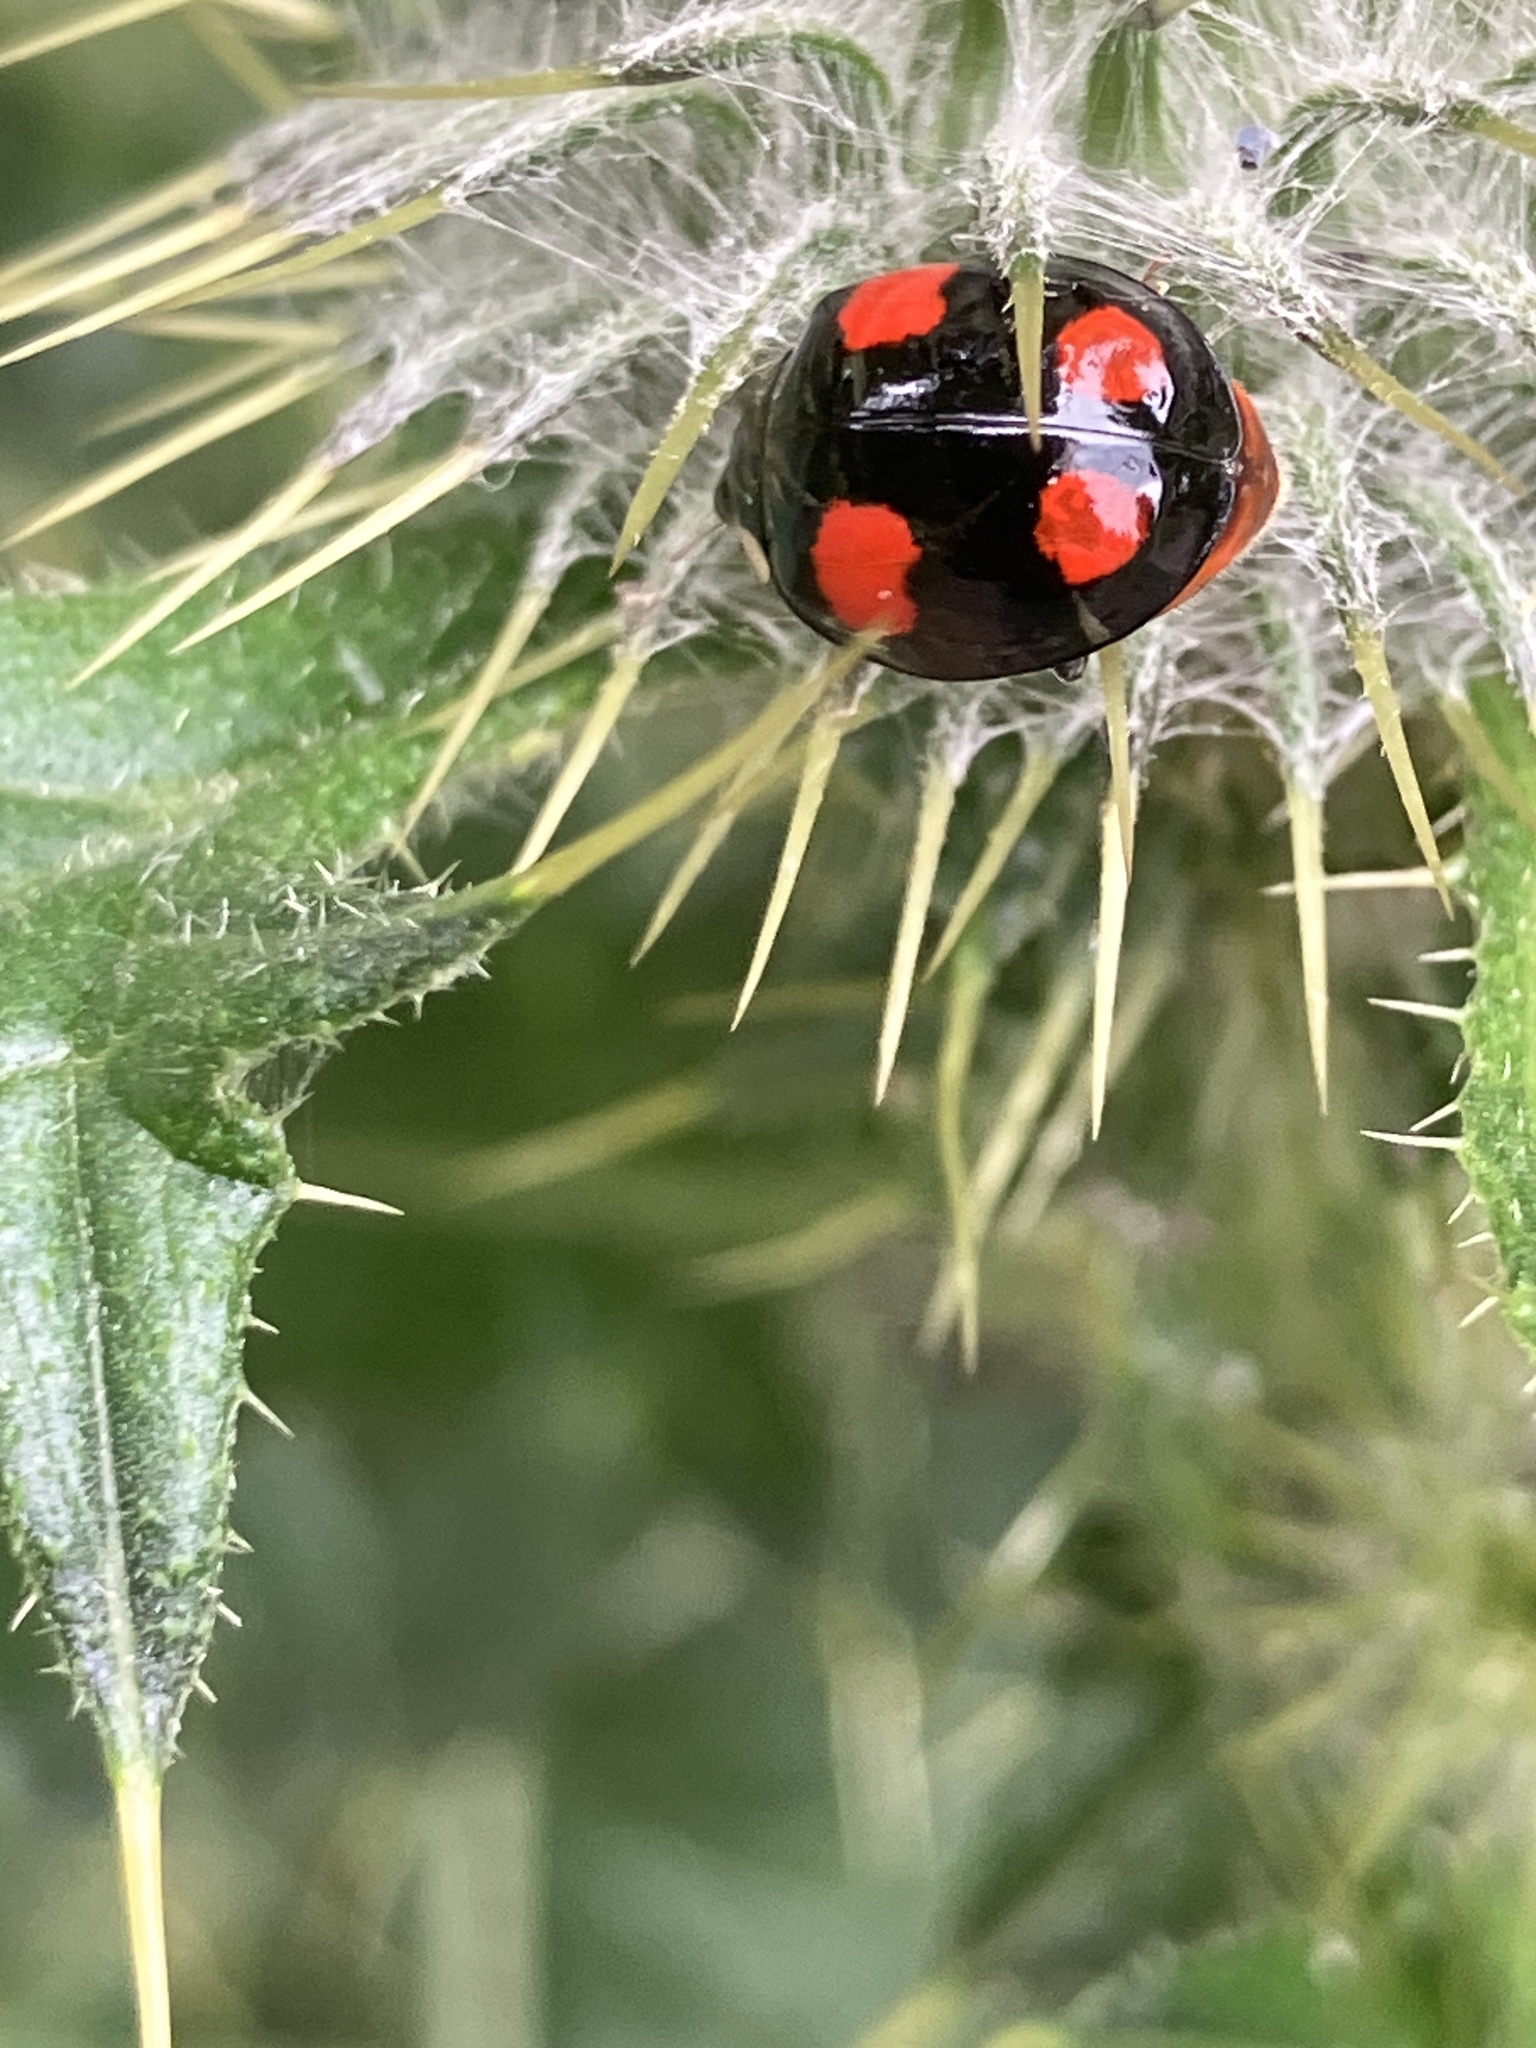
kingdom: Animalia
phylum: Arthropoda
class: Insecta
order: Coleoptera
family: Coccinellidae
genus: Harmonia
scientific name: Harmonia axyridis
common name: Harlequin ladybird
